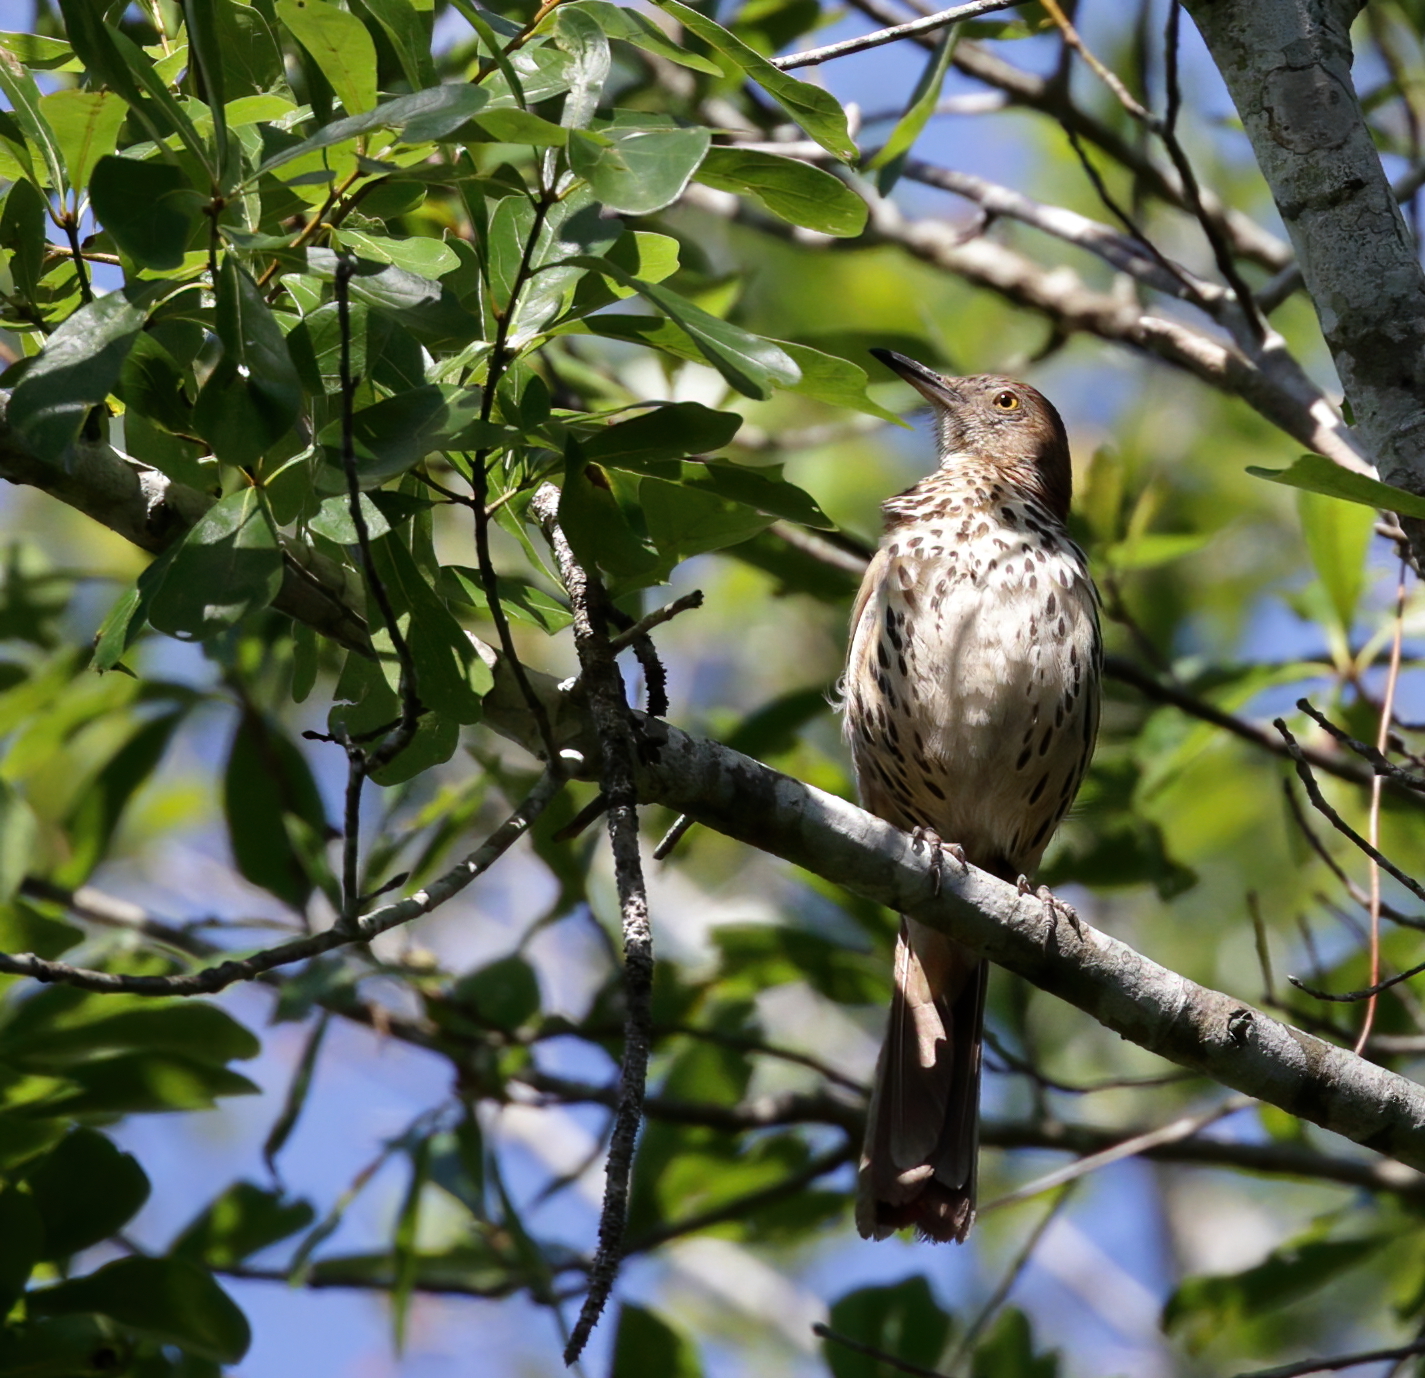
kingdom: Animalia
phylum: Chordata
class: Aves
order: Passeriformes
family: Mimidae
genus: Toxostoma
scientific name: Toxostoma rufum
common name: Brown thrasher
